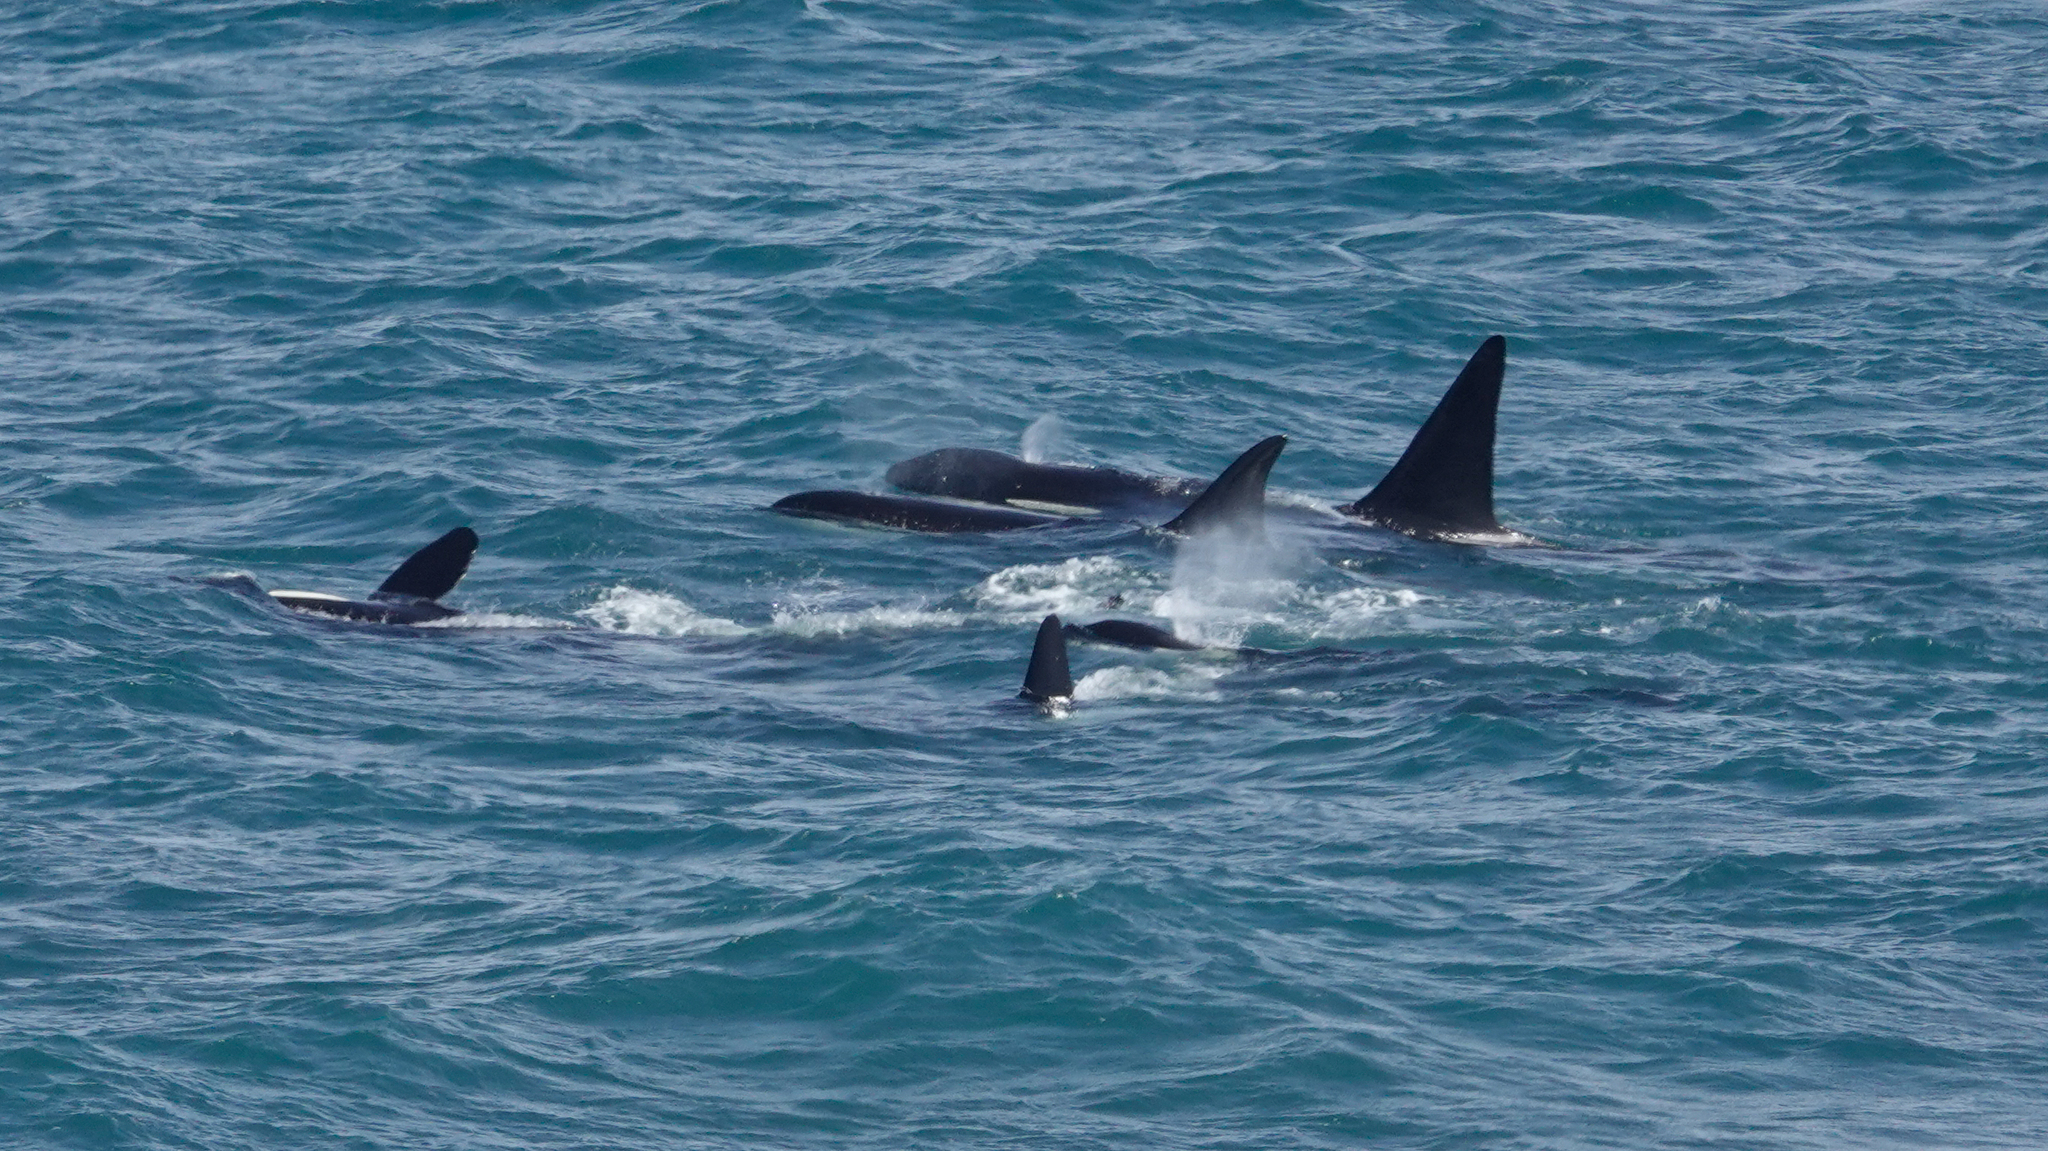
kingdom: Animalia
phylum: Chordata
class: Mammalia
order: Cetacea
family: Delphinidae
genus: Orcinus
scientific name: Orcinus orca
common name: Killer whale
